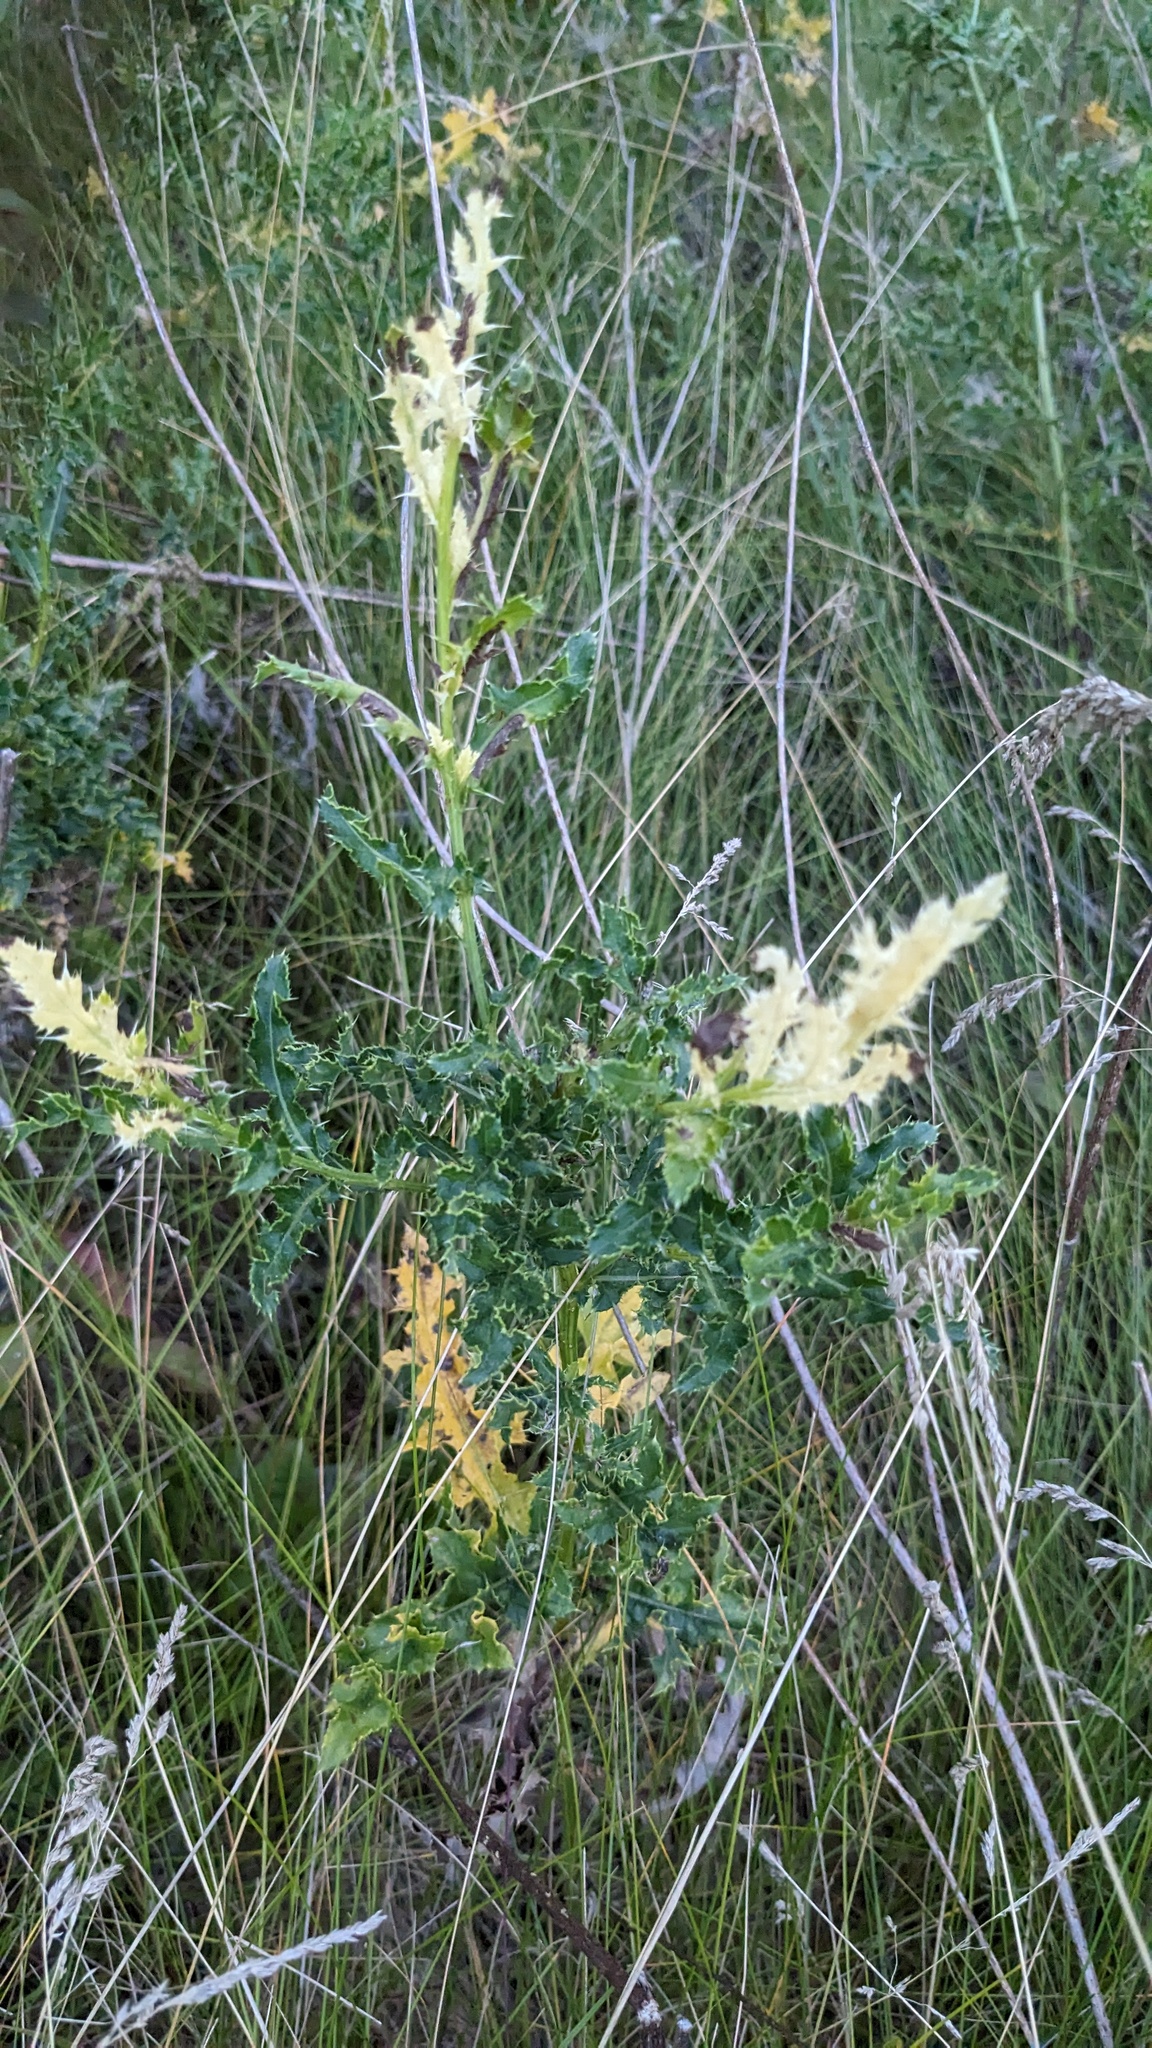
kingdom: Plantae
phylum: Tracheophyta
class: Magnoliopsida
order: Asterales
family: Asteraceae
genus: Cirsium
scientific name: Cirsium arvense
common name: Creeping thistle
